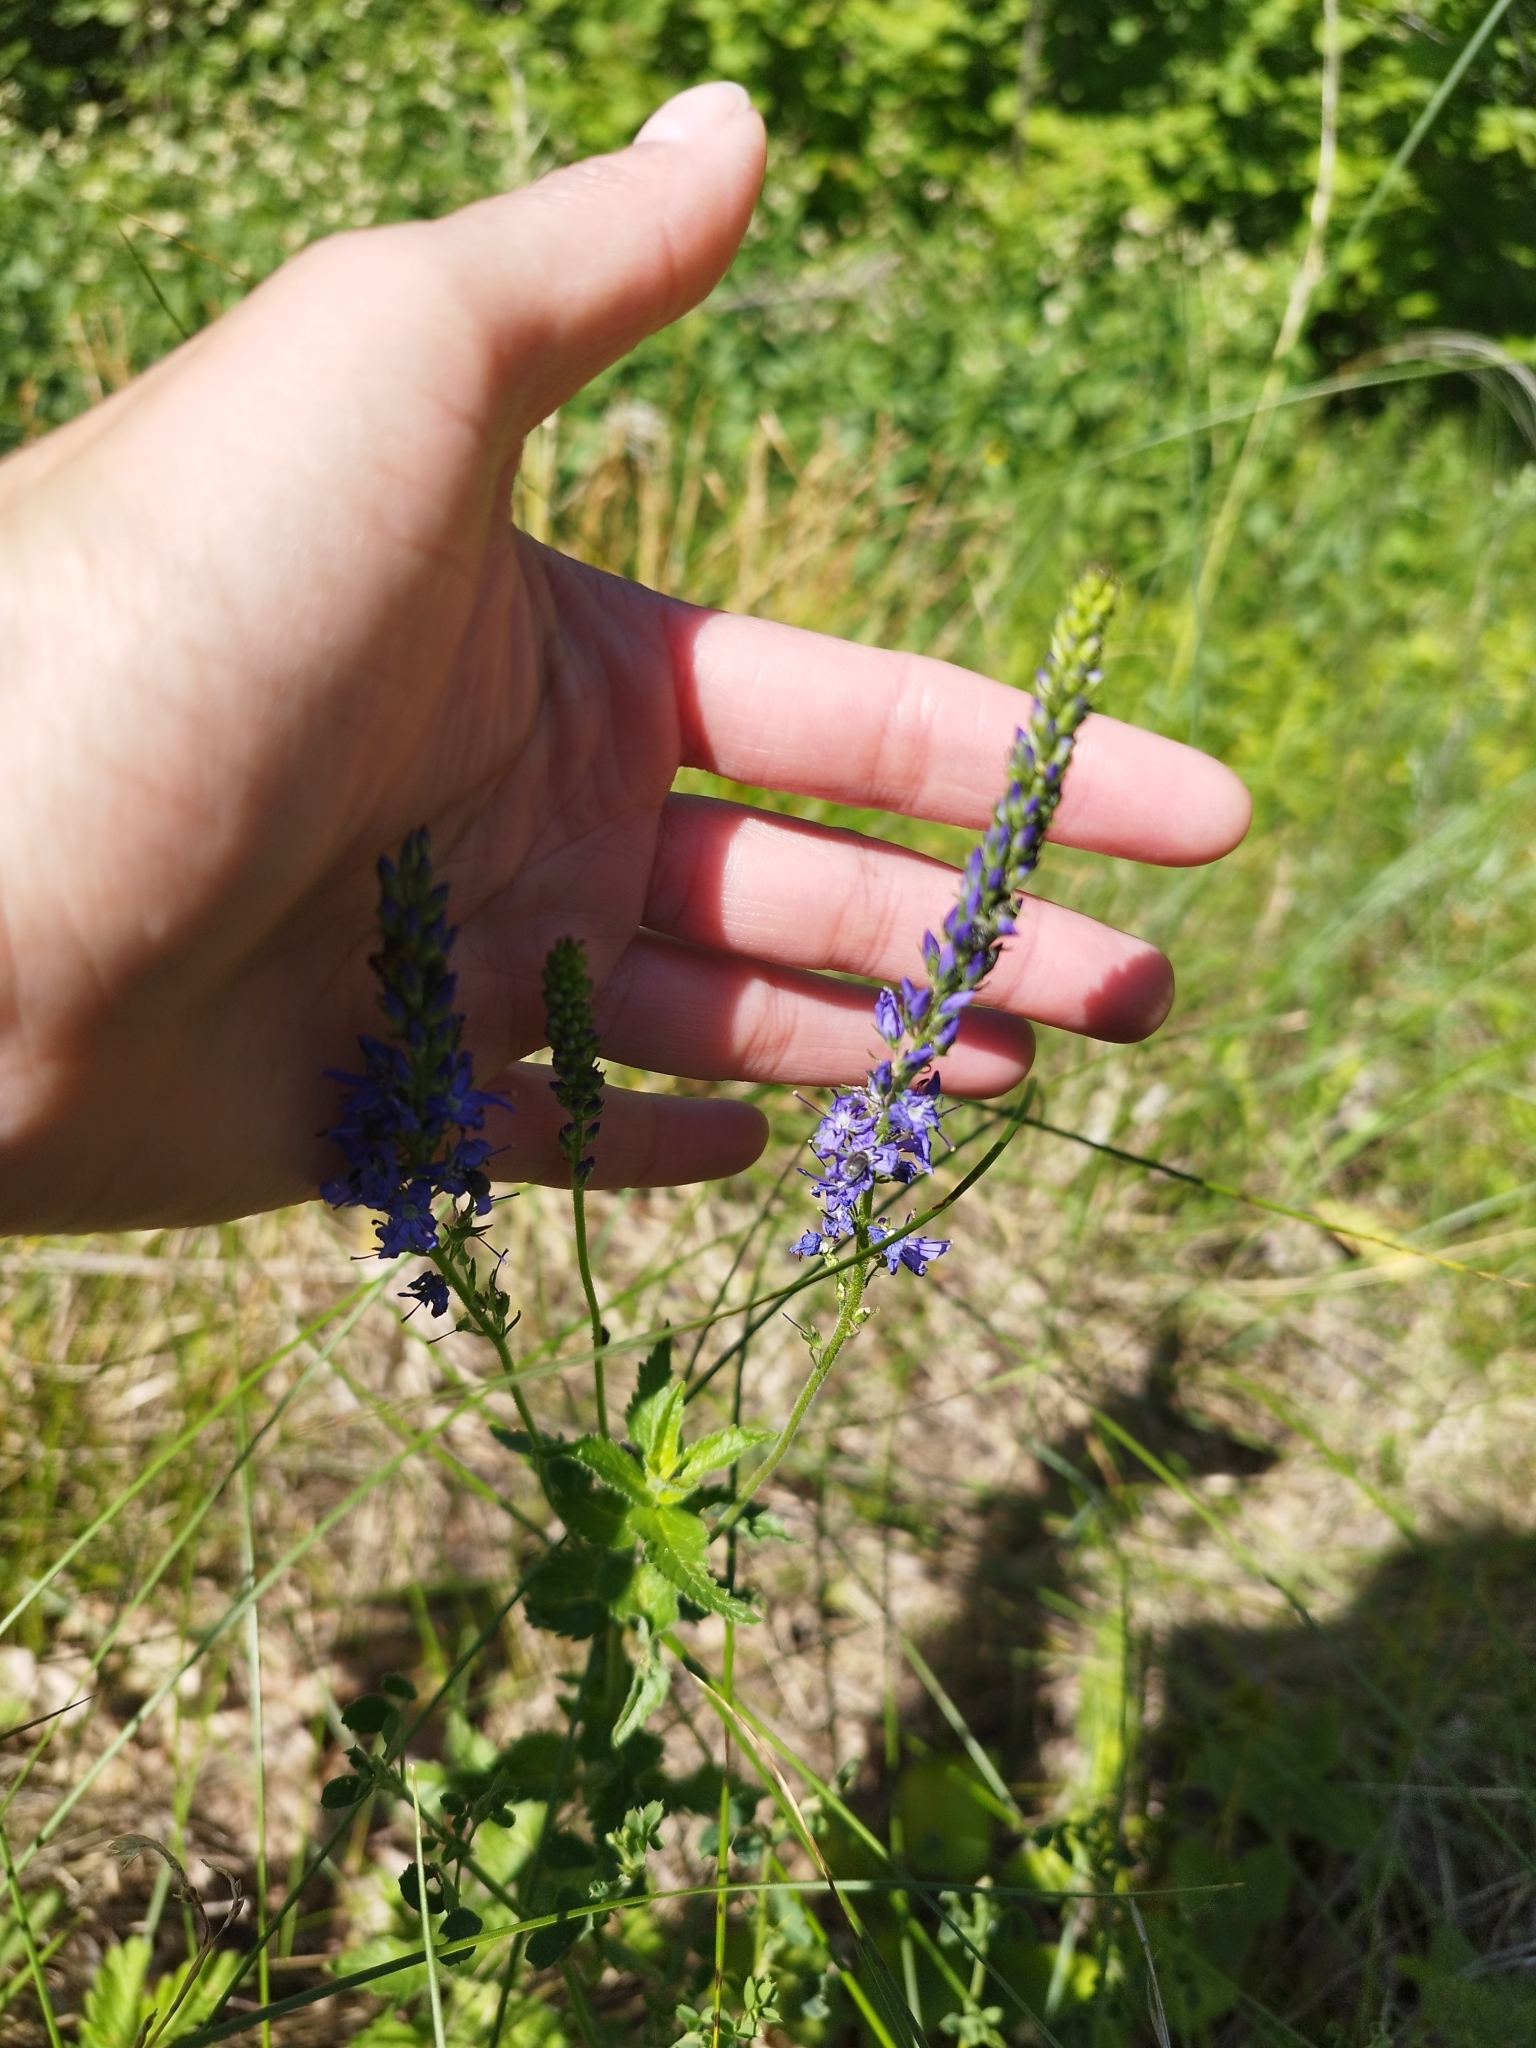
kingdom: Plantae
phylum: Tracheophyta
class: Magnoliopsida
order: Lamiales
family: Plantaginaceae
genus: Veronica
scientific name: Veronica teucrium
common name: Large speedwell
